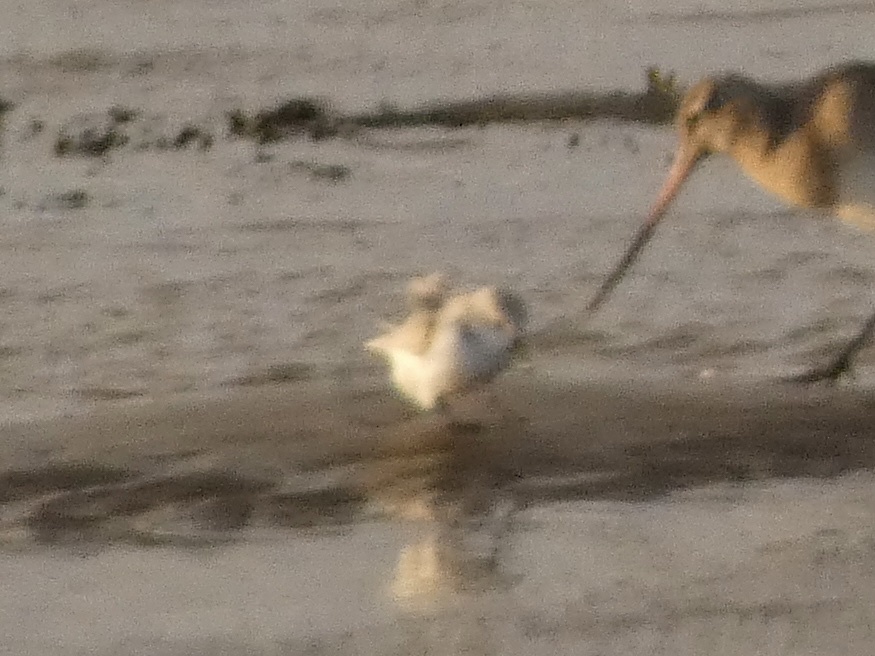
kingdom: Animalia
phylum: Chordata
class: Aves
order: Charadriiformes
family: Scolopacidae
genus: Calidris
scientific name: Calidris alba
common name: Sanderling
